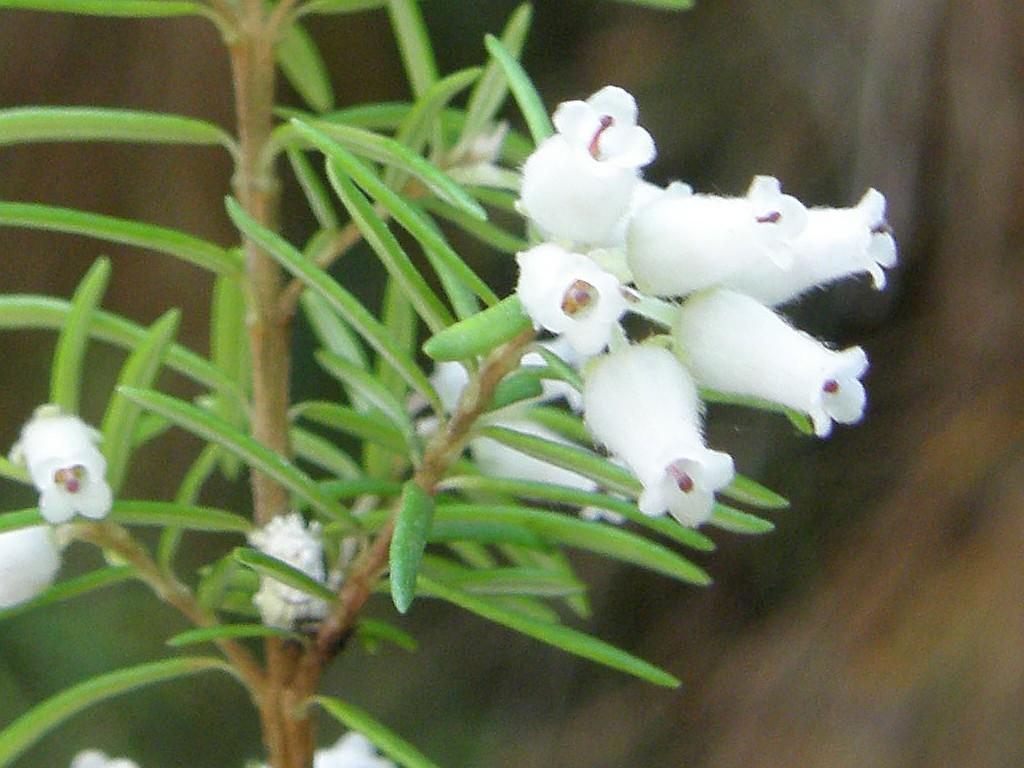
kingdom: Plantae
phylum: Tracheophyta
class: Magnoliopsida
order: Ericales
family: Ericaceae
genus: Erica
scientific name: Erica caffra
